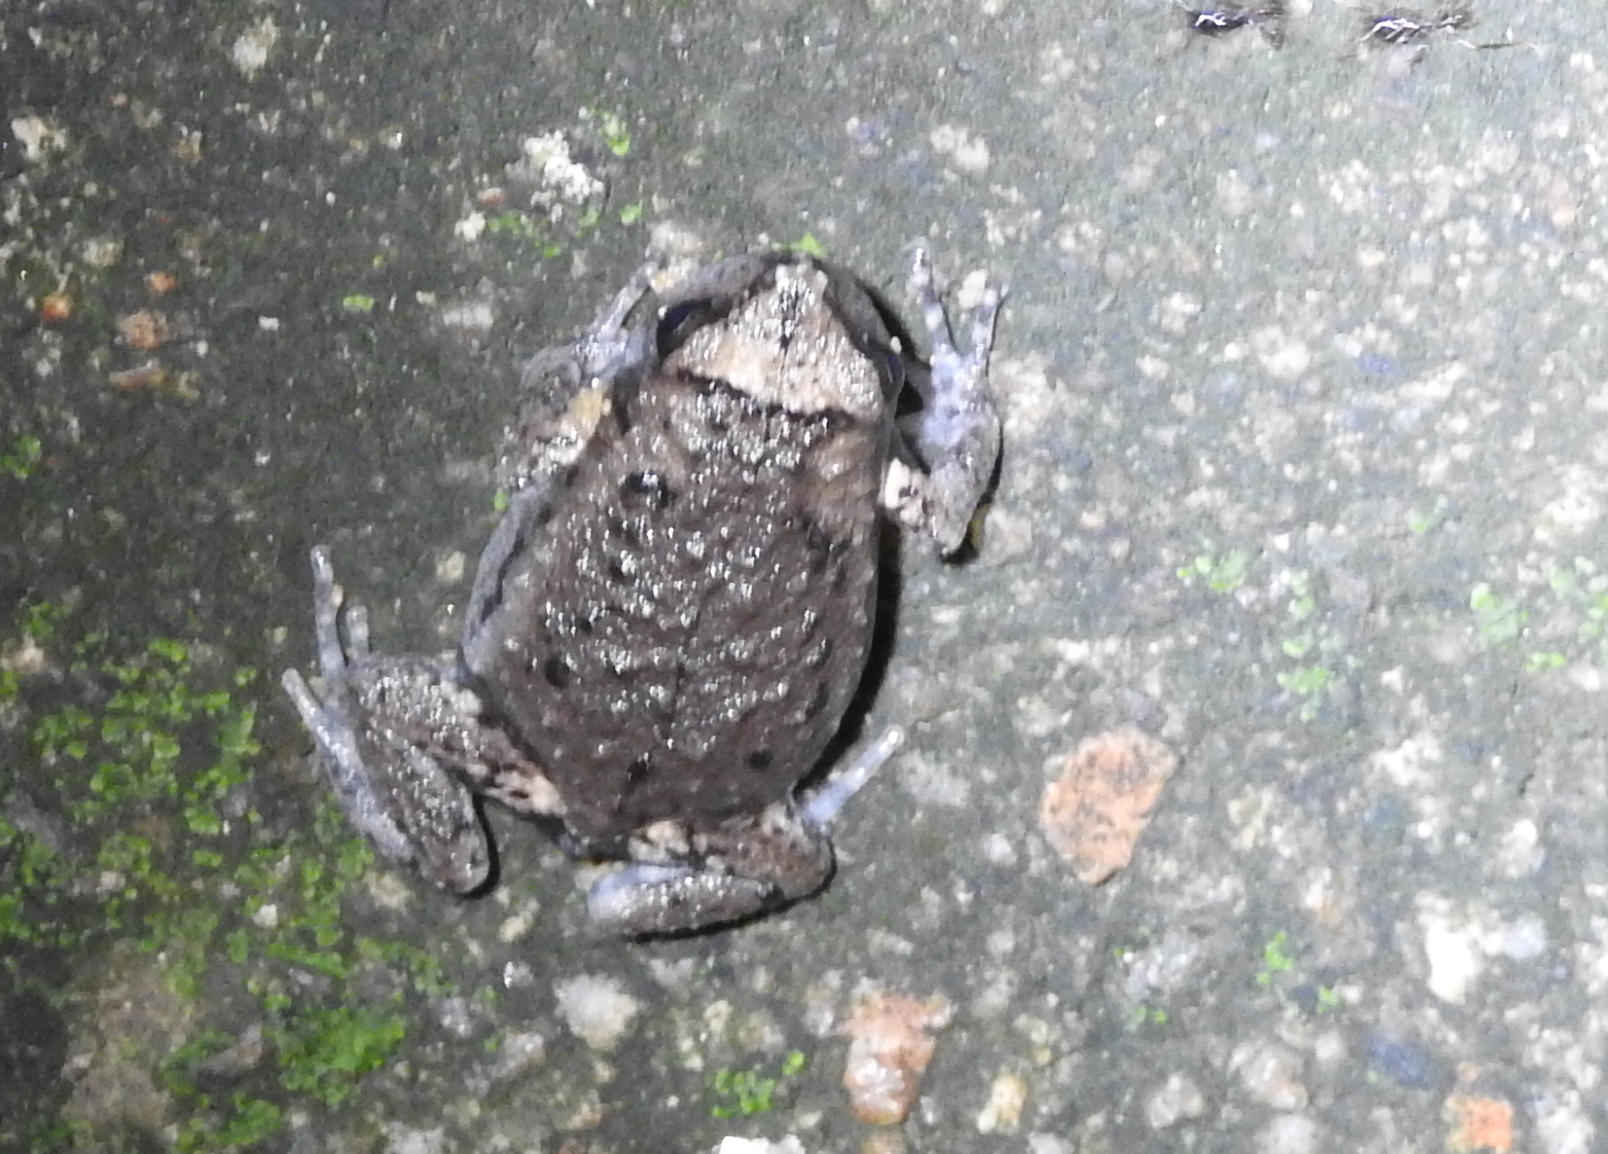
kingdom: Animalia
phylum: Chordata
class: Amphibia
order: Anura
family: Microhylidae
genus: Kaloula
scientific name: Kaloula pulchra
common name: Common,banded bullfrog
